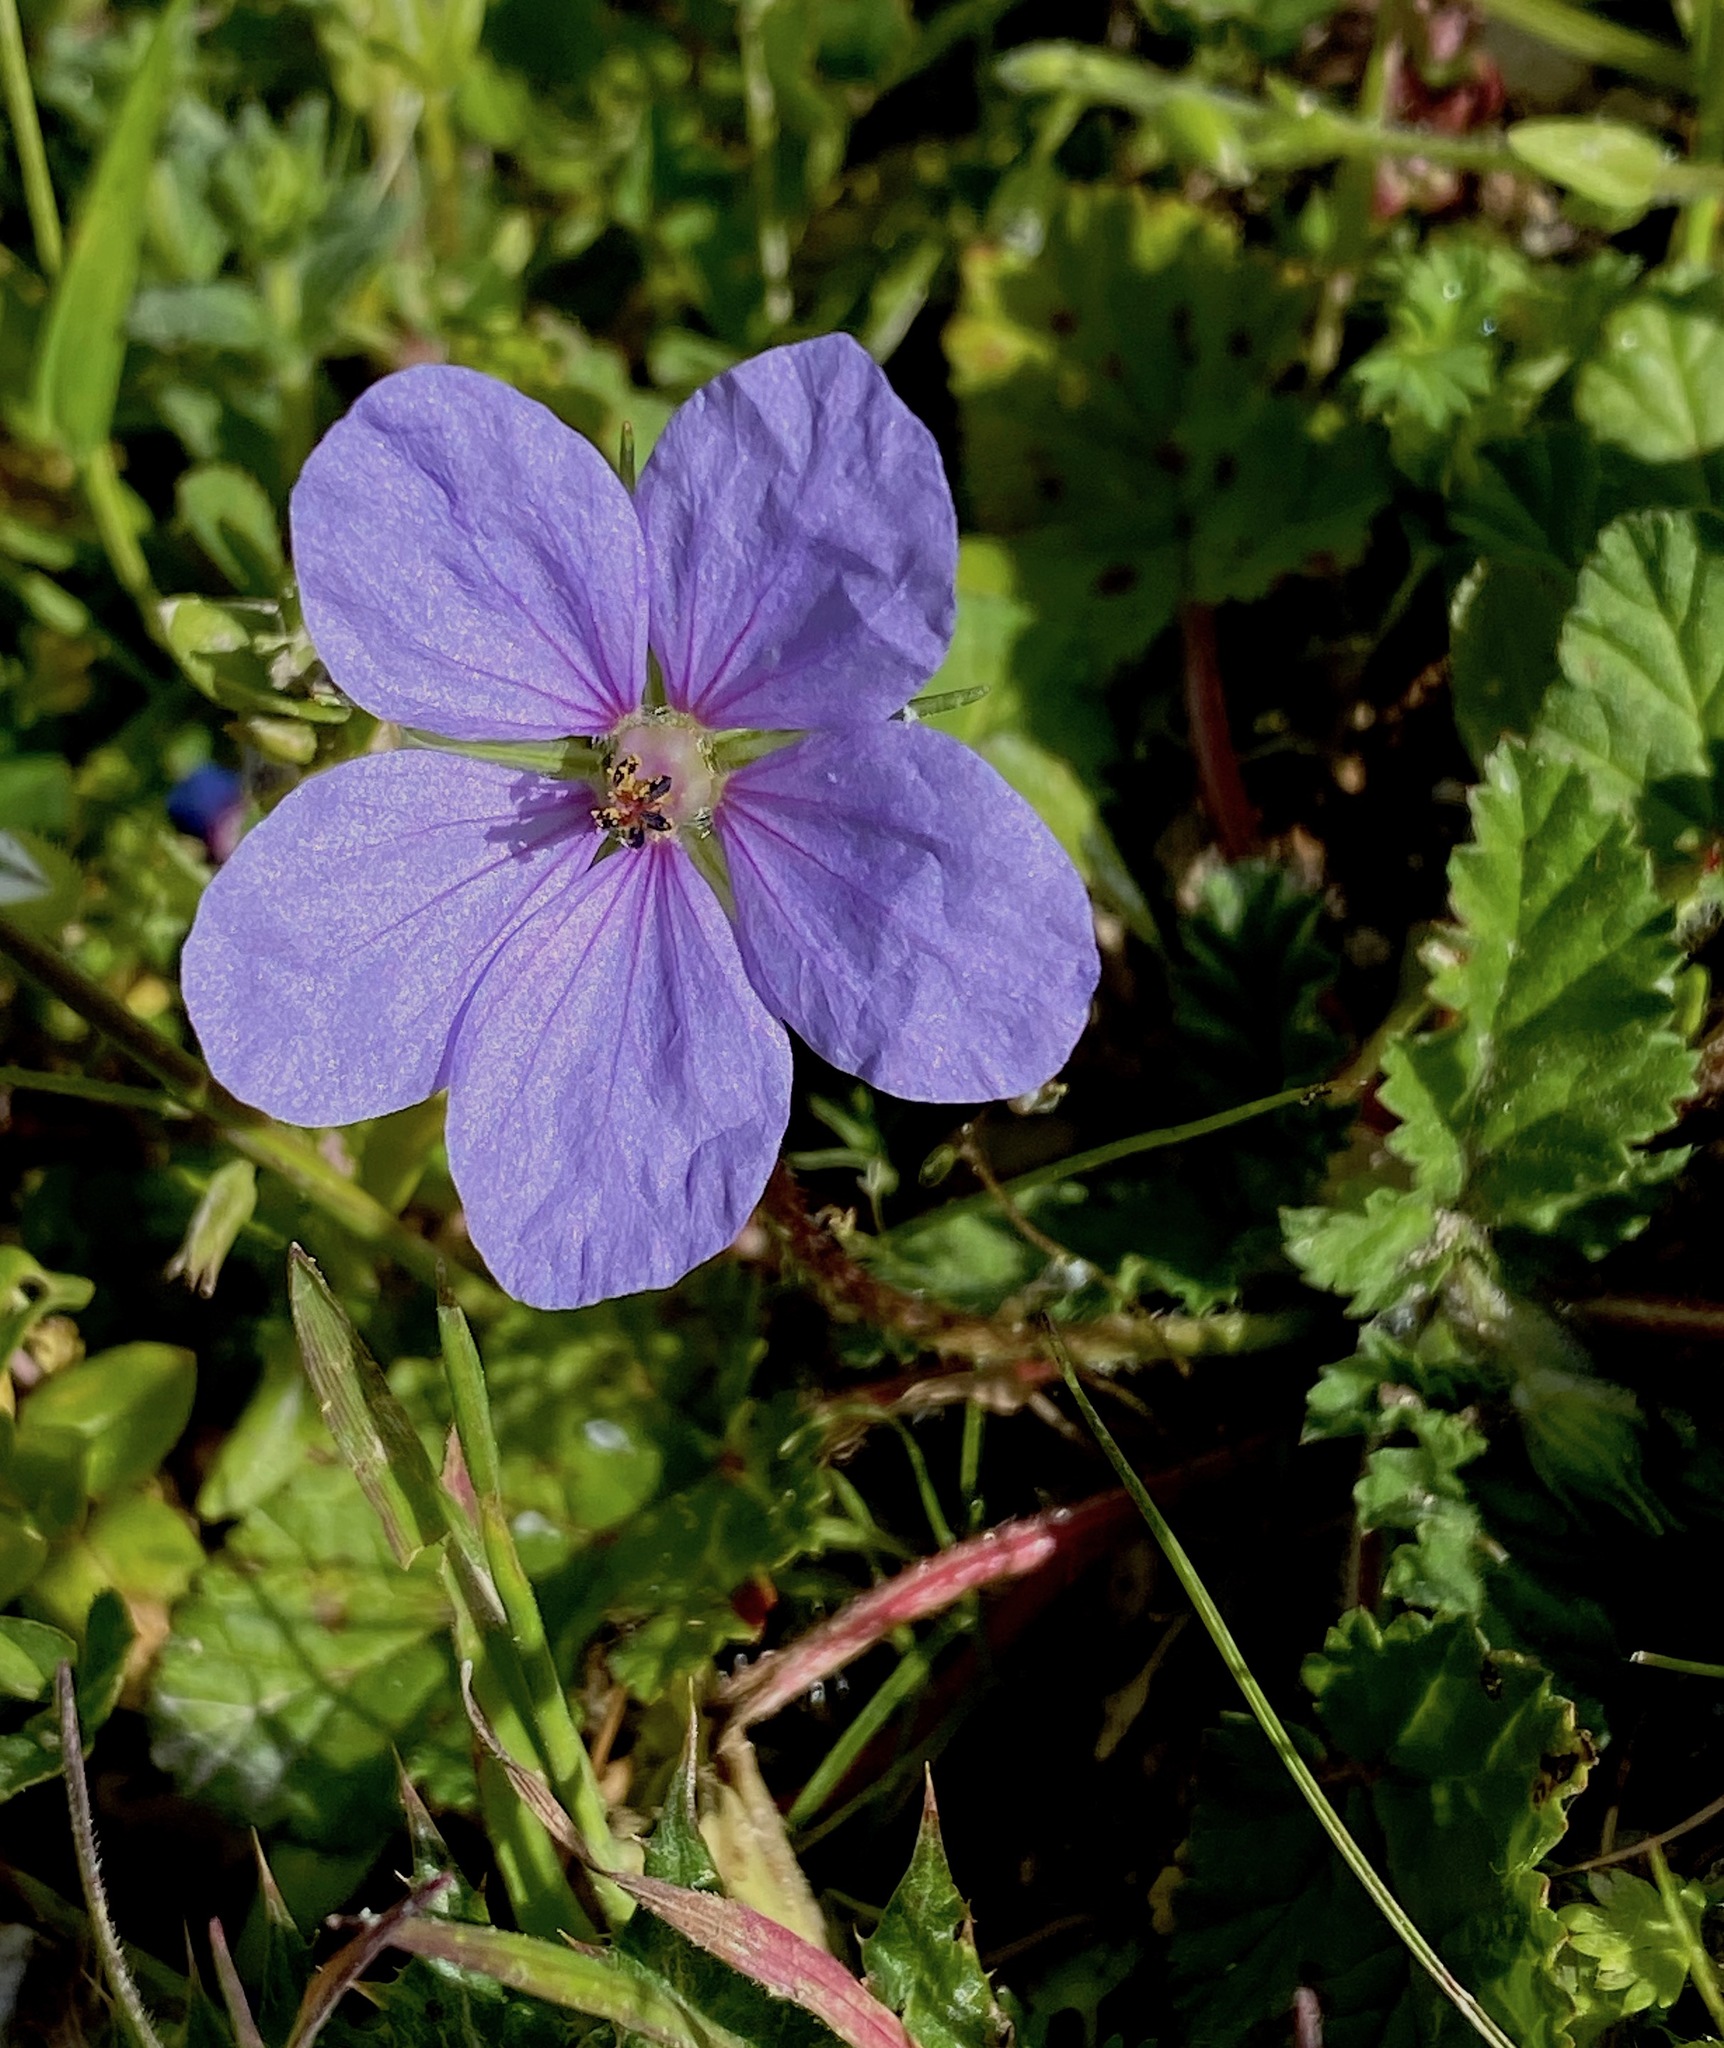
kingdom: Plantae
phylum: Tracheophyta
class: Magnoliopsida
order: Geraniales
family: Geraniaceae
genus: Erodium
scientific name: Erodium gruinum
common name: Iranian stork's bill
